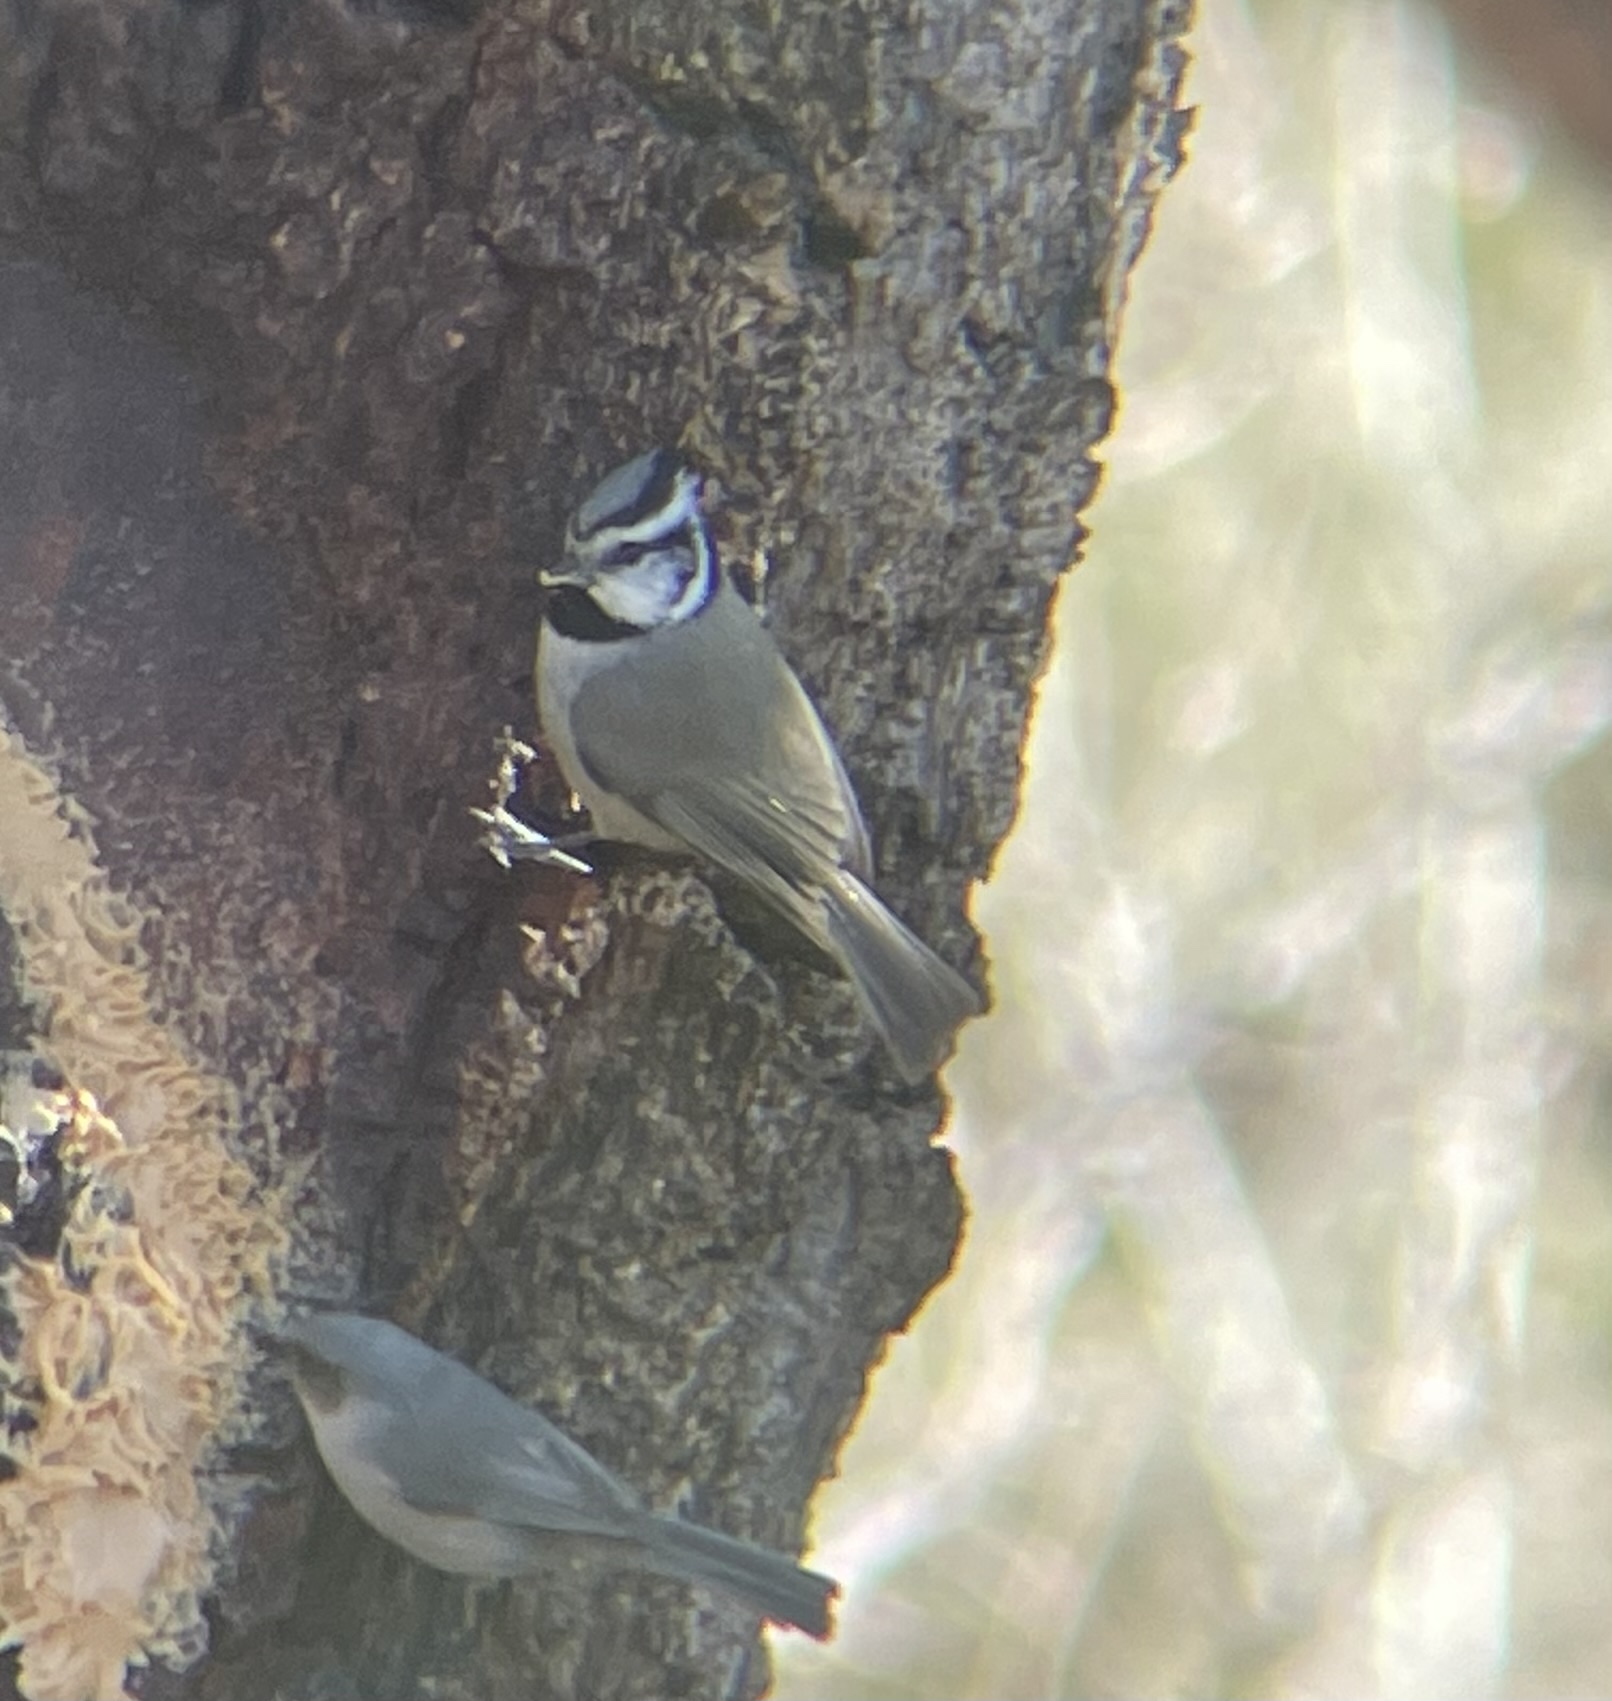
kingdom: Animalia
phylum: Chordata
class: Aves
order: Passeriformes
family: Paridae
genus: Baeolophus
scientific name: Baeolophus wollweberi
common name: Bridled titmouse
